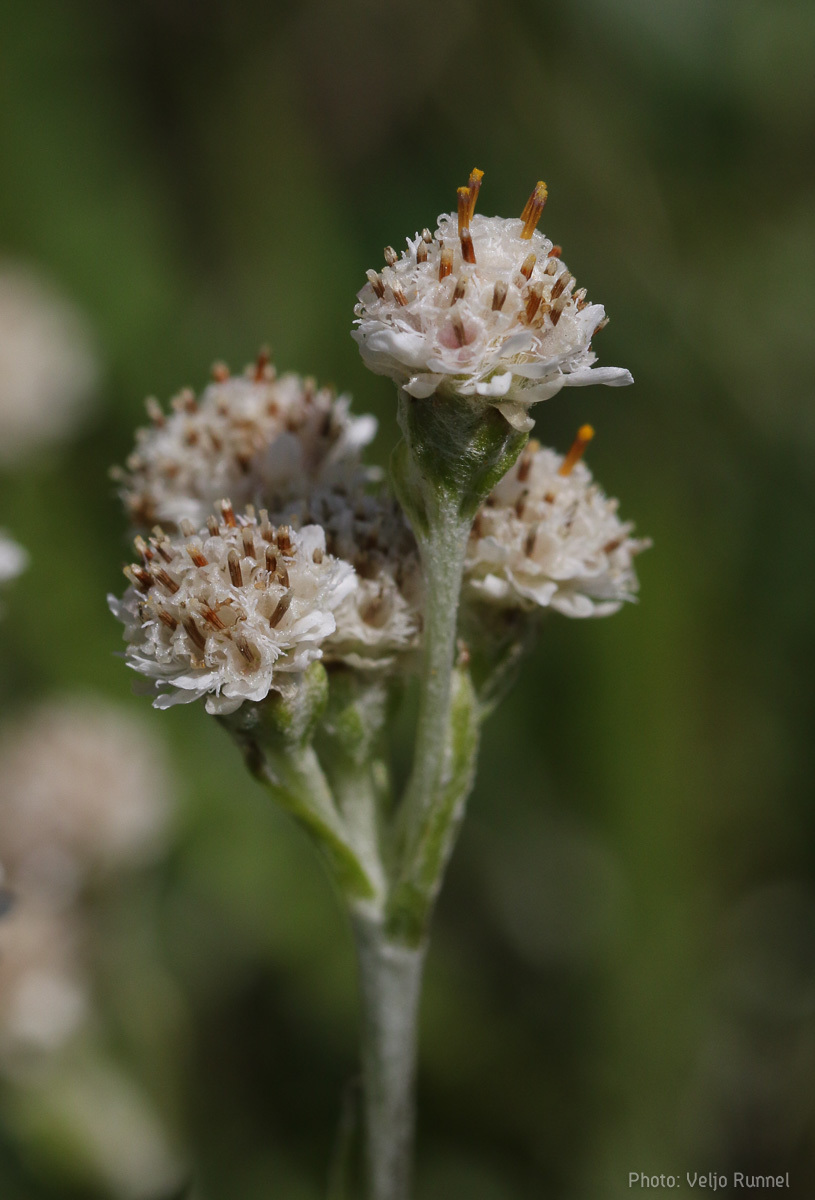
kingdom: Plantae
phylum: Tracheophyta
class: Magnoliopsida
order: Asterales
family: Asteraceae
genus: Antennaria
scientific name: Antennaria dioica
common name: Mountain everlasting
